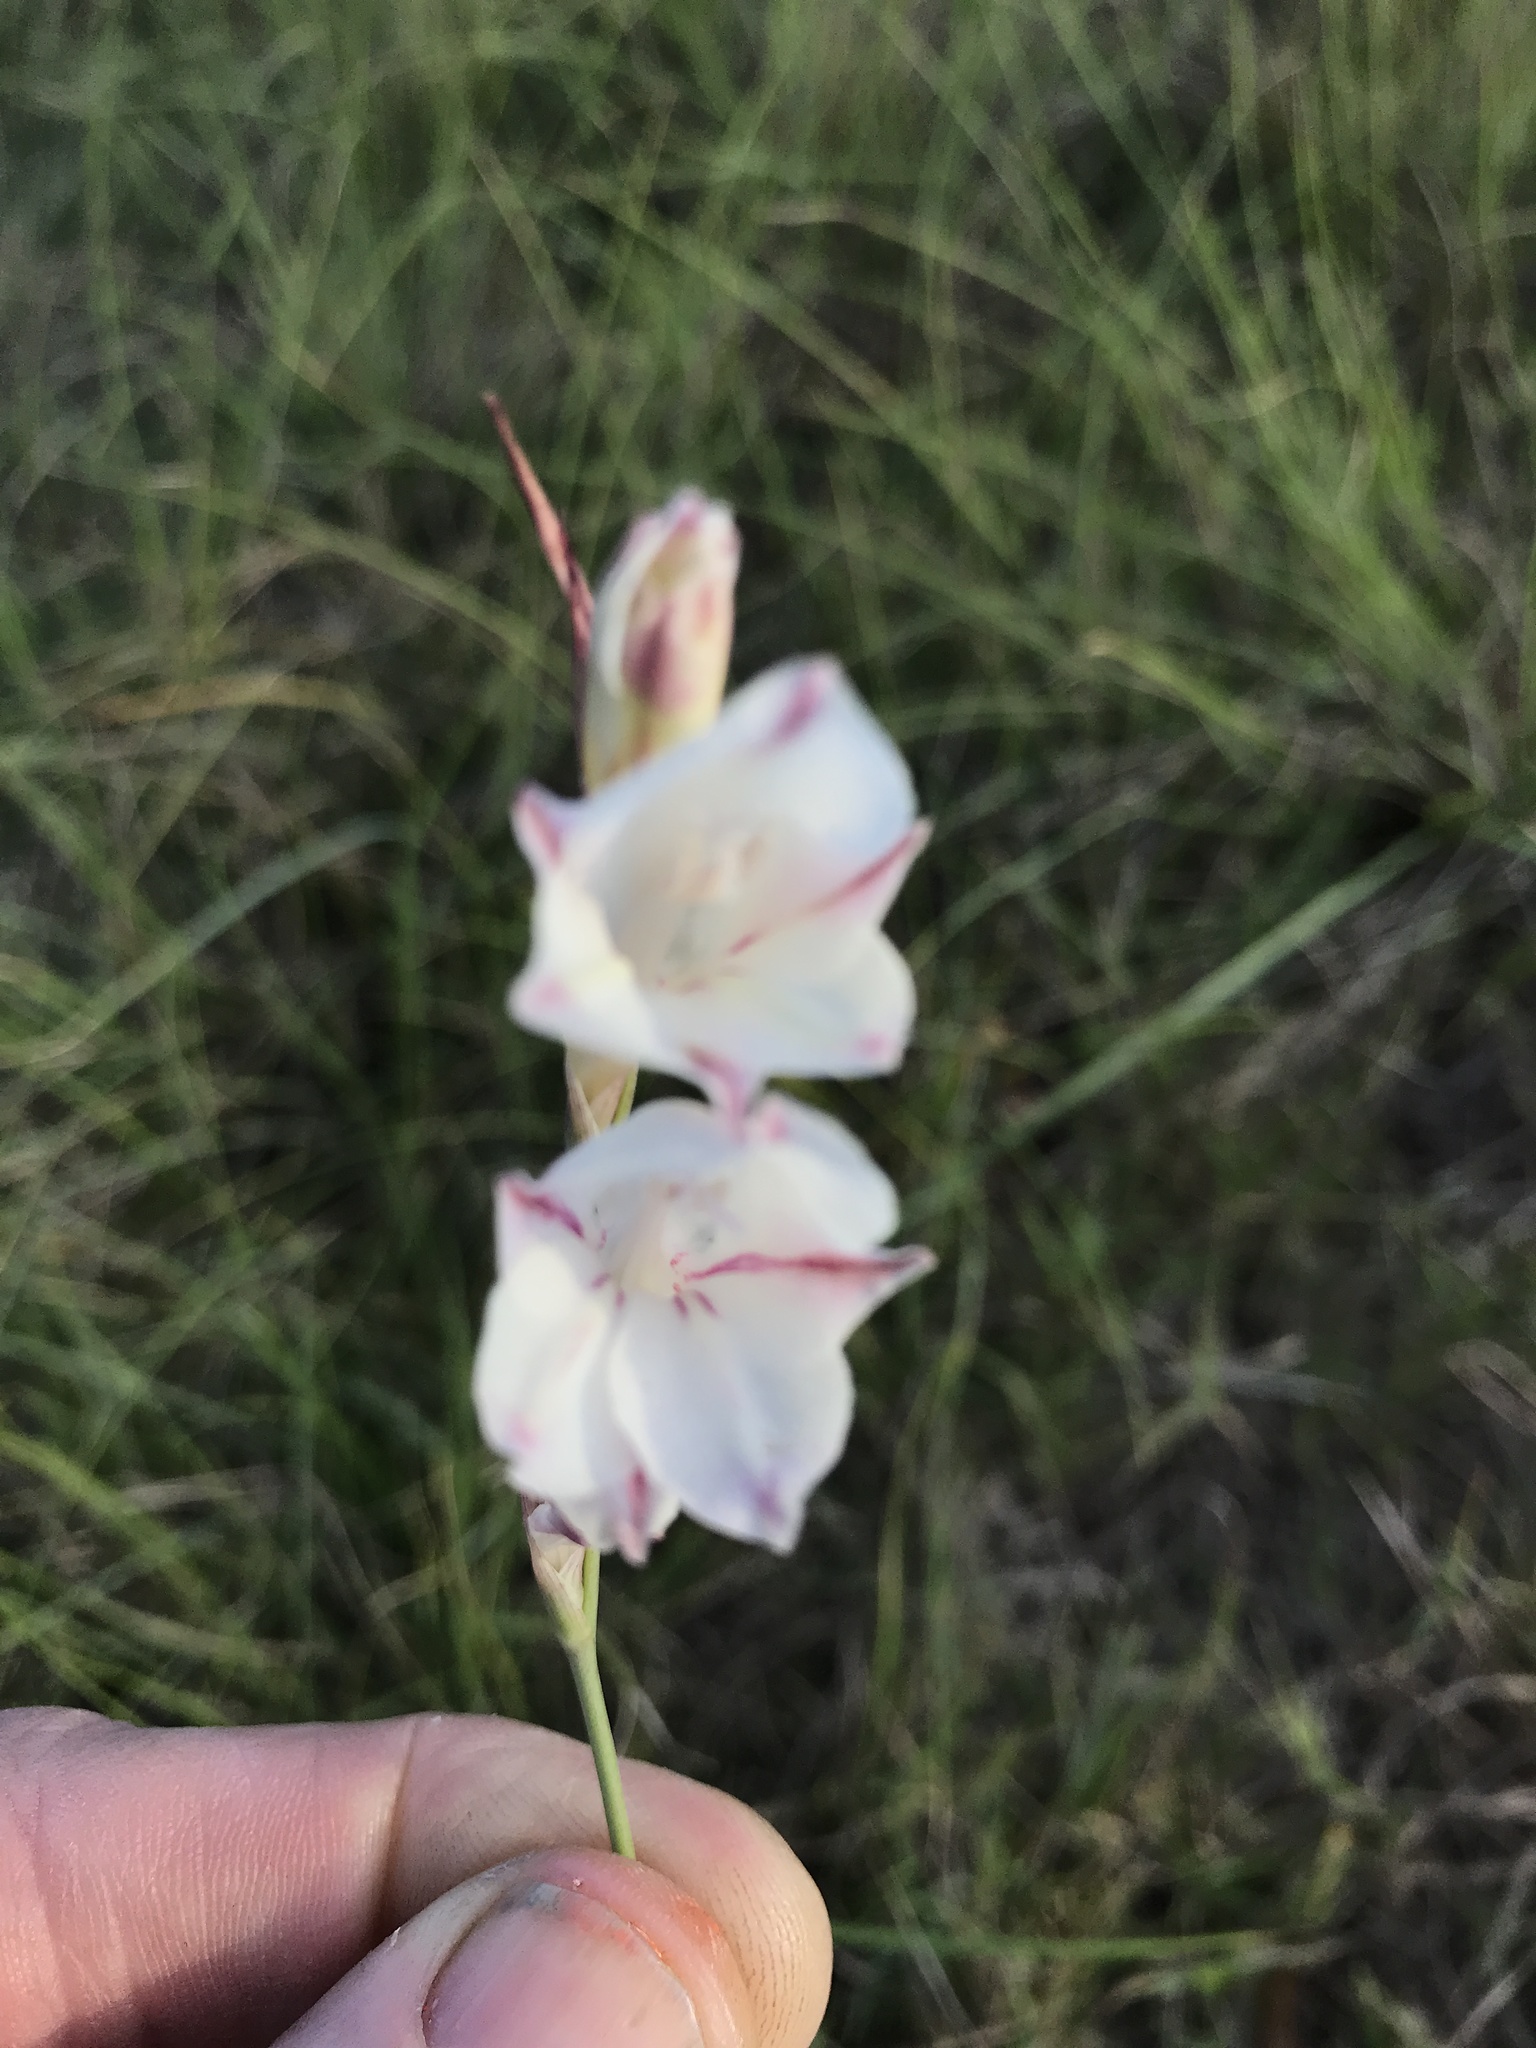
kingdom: Plantae
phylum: Tracheophyta
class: Liliopsida
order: Asparagales
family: Iridaceae
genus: Gladiolus
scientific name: Gladiolus wilsonii
